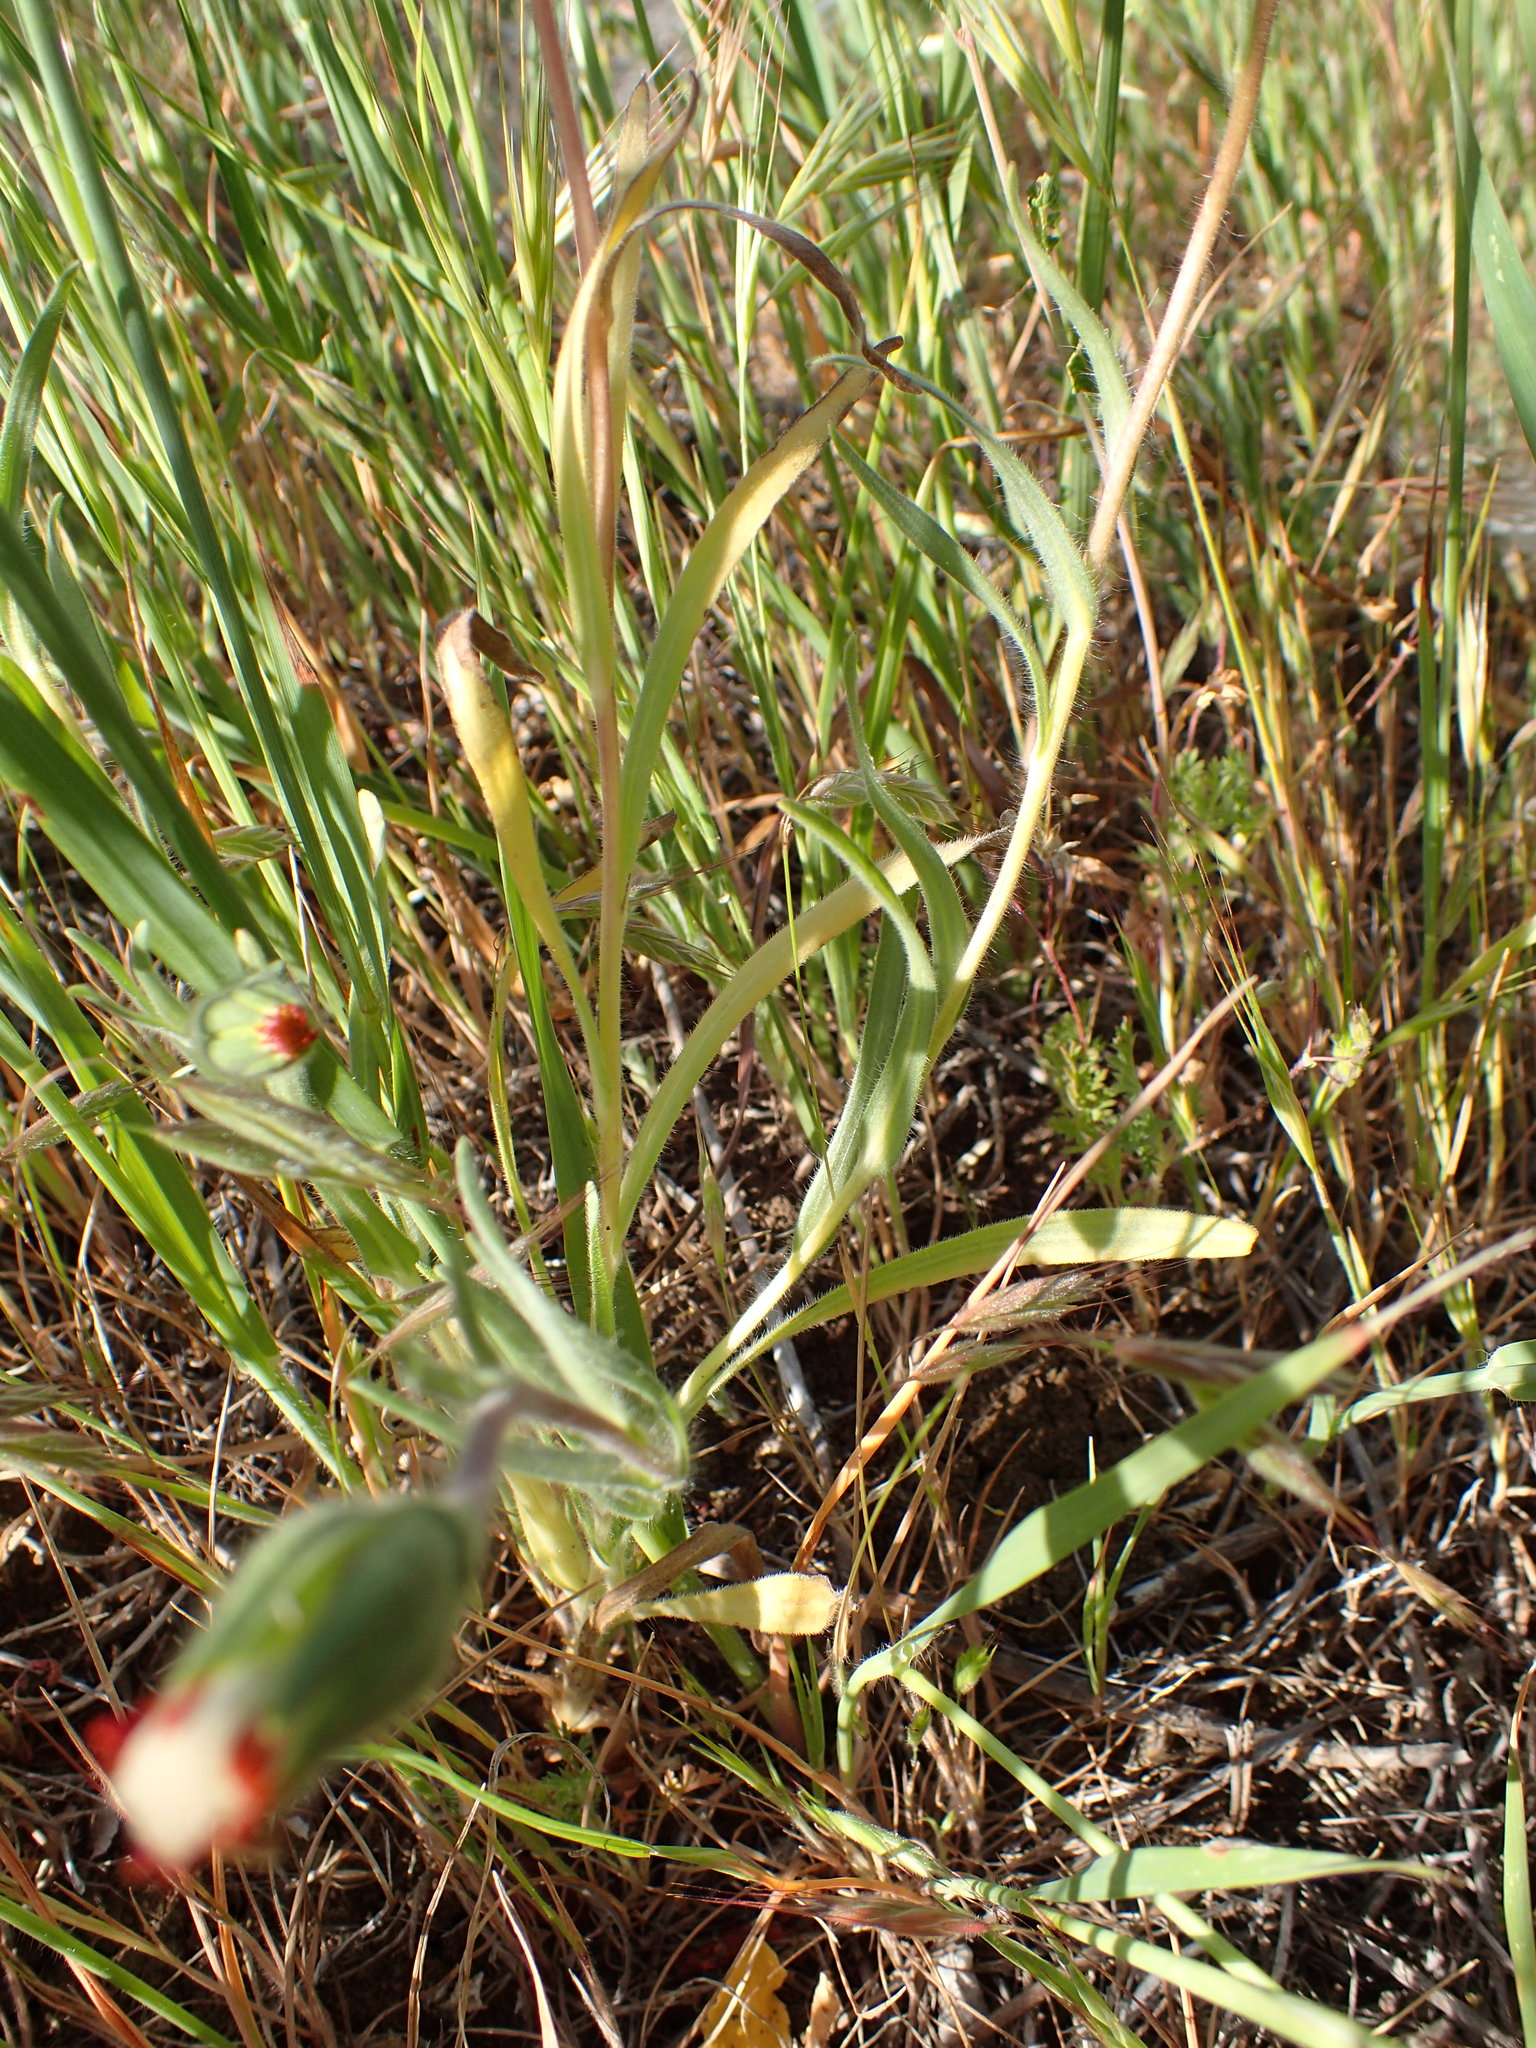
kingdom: Plantae
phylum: Tracheophyta
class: Magnoliopsida
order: Asterales
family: Asteraceae
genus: Achyrachaena
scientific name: Achyrachaena mollis
